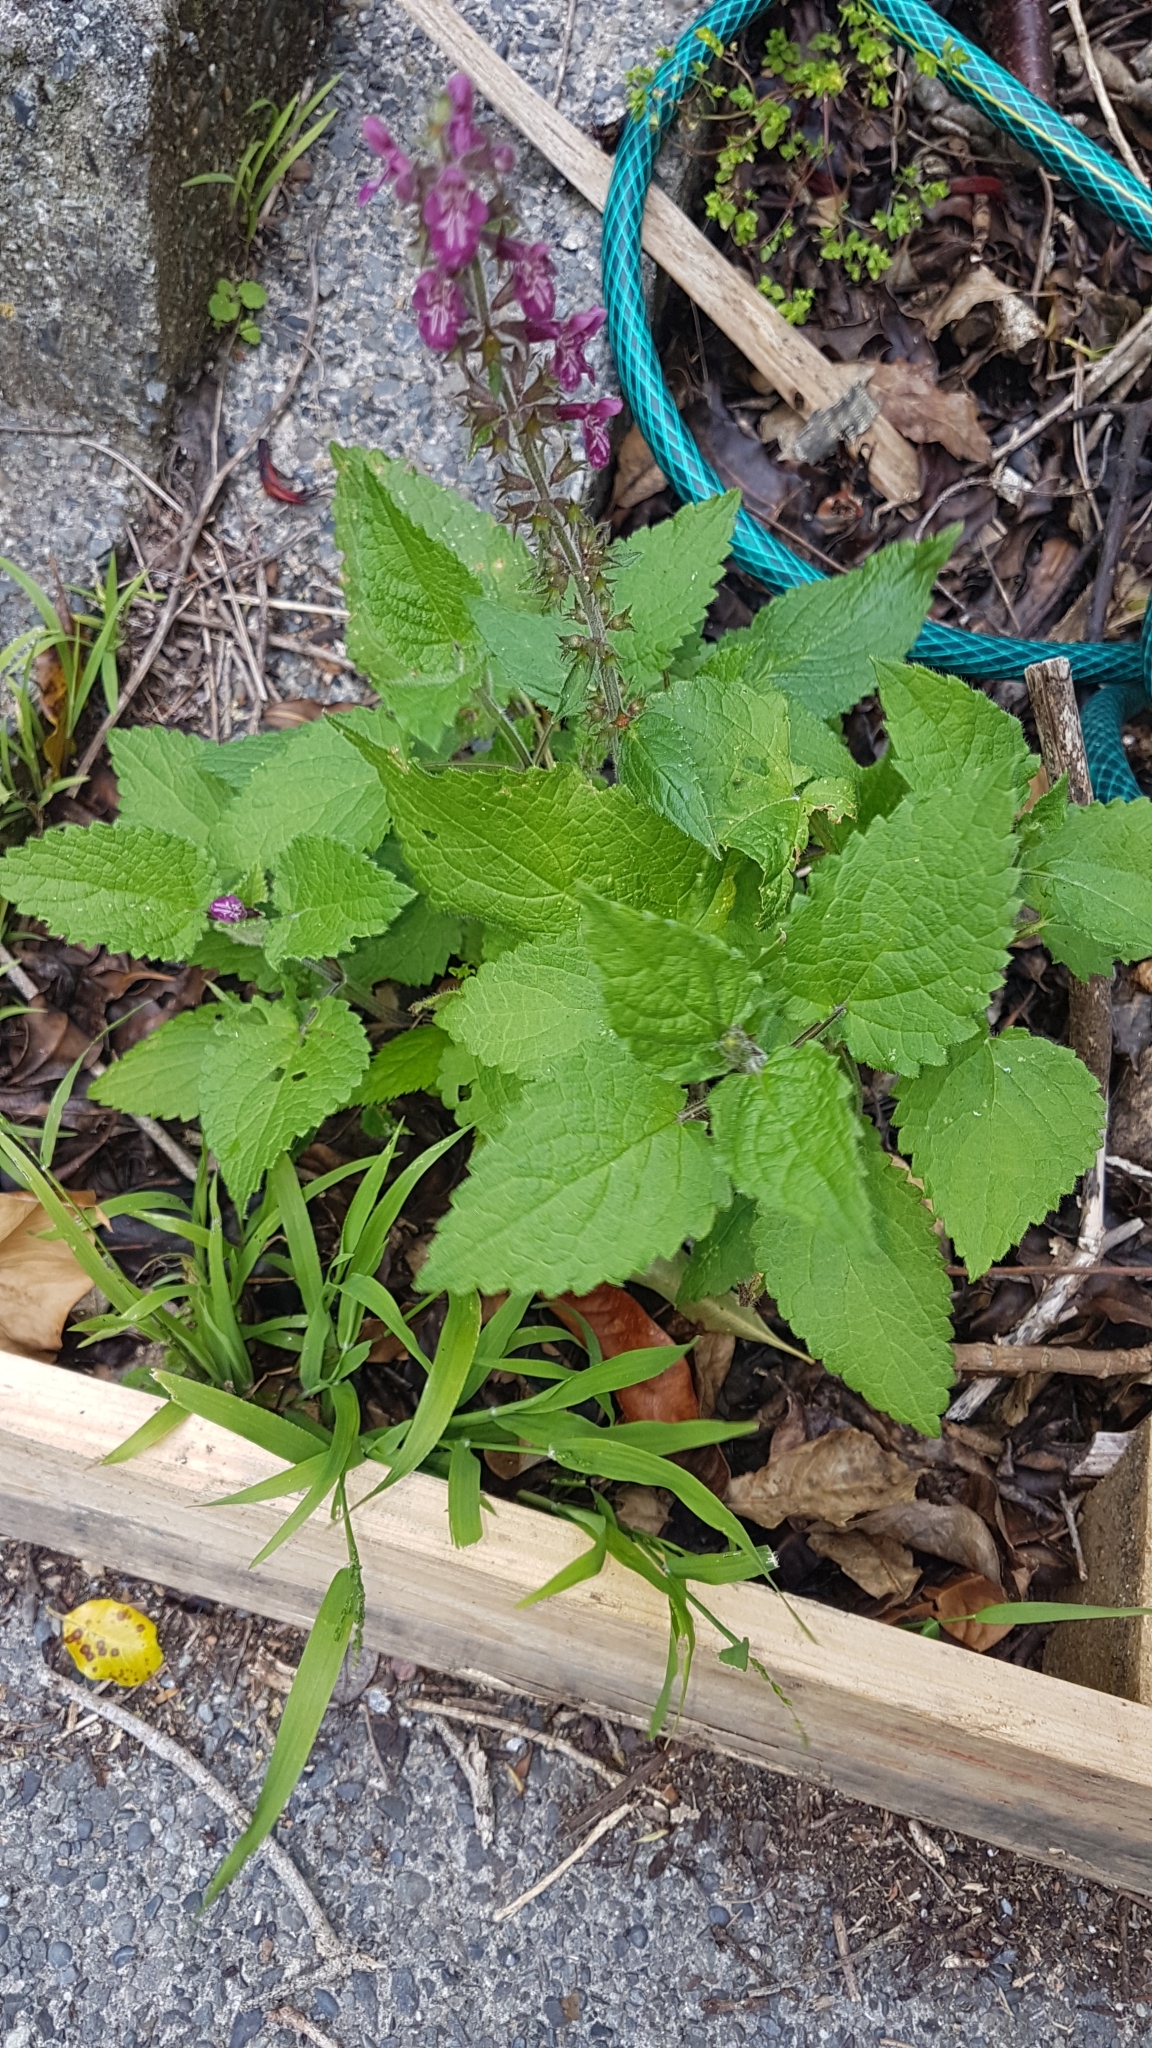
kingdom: Plantae
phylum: Tracheophyta
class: Magnoliopsida
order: Lamiales
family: Lamiaceae
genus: Stachys
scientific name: Stachys sylvatica
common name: Hedge woundwort
